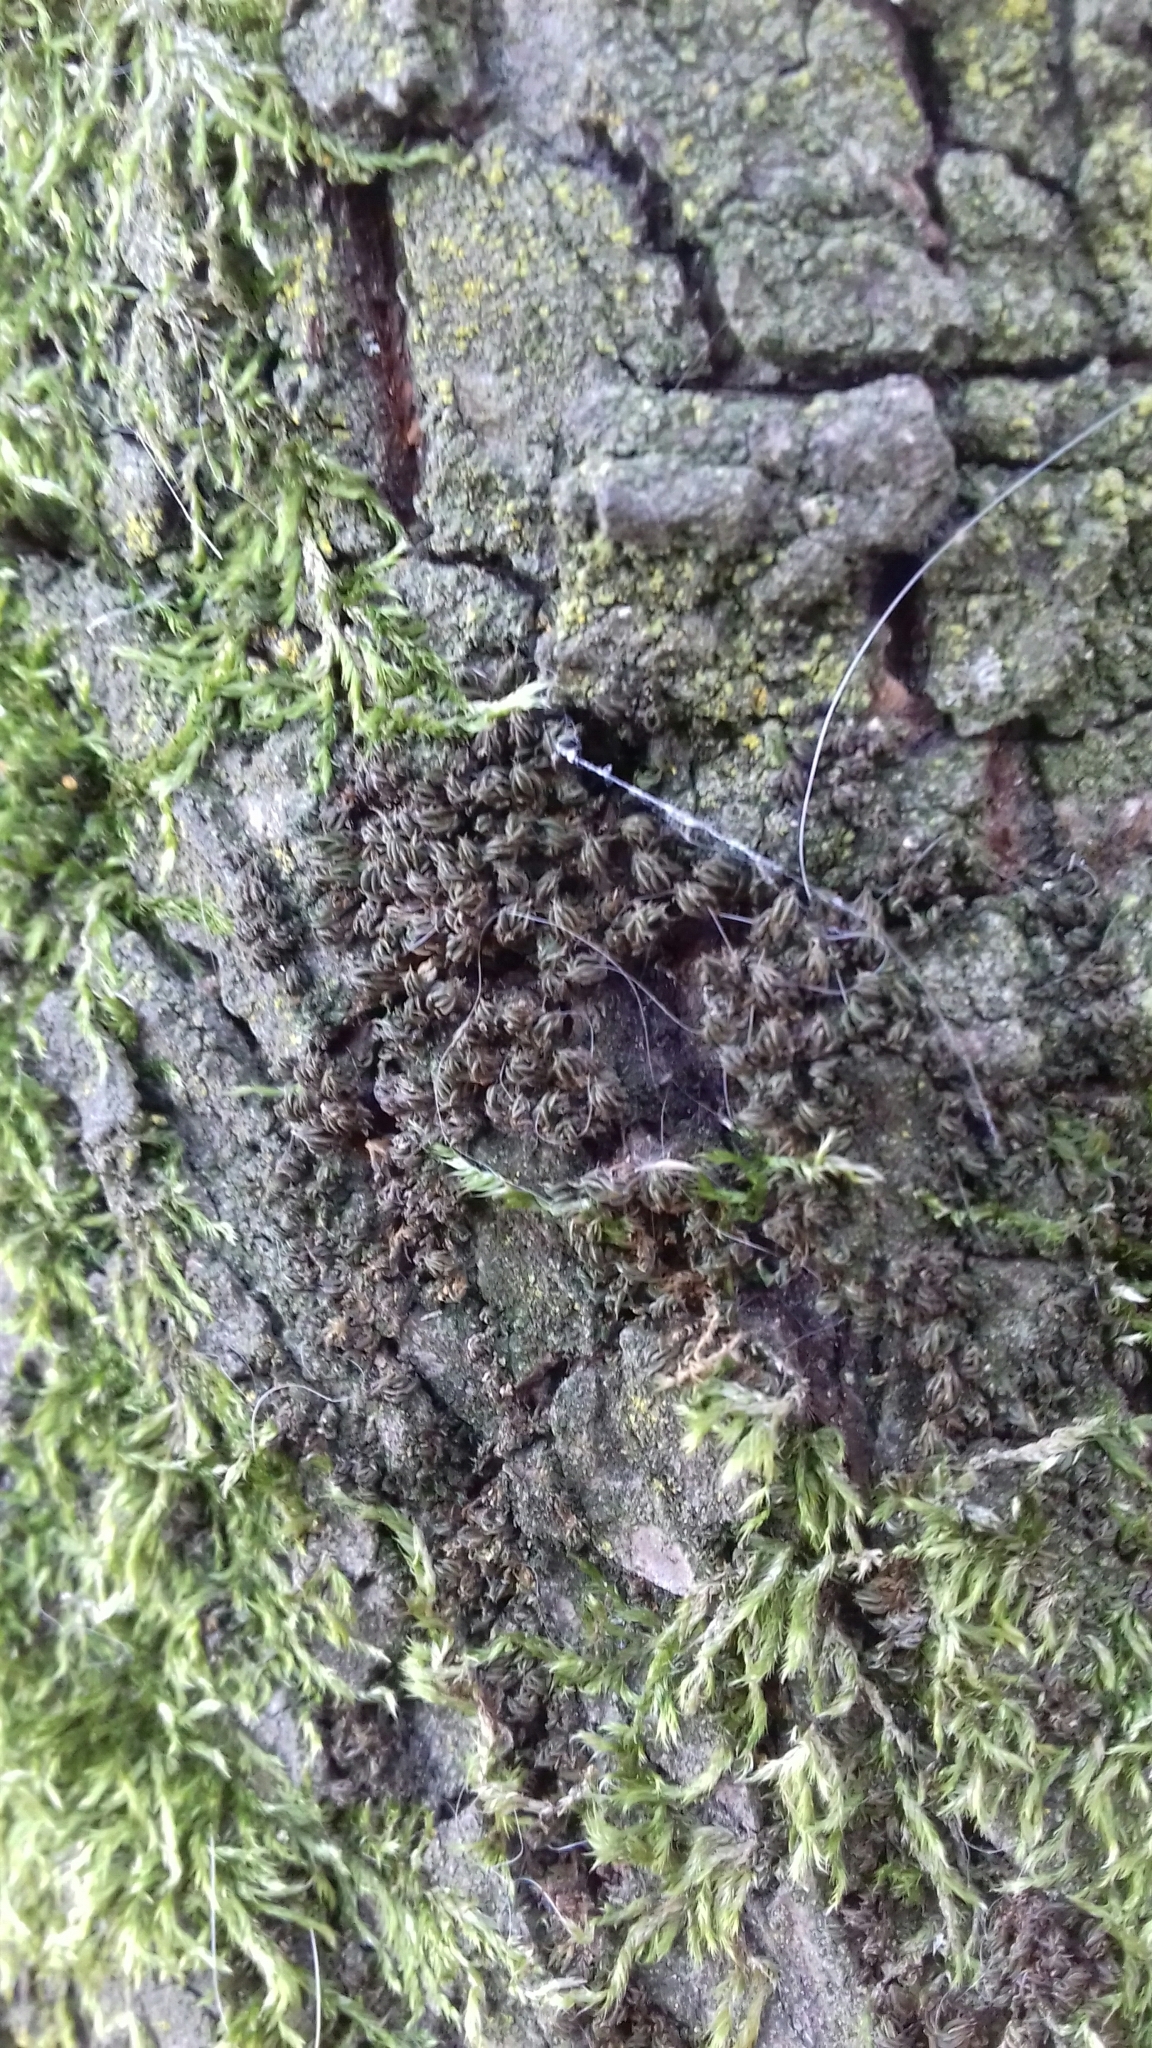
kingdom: Plantae
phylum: Bryophyta
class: Bryopsida
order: Pottiales
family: Pottiaceae
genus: Syntrichia
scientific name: Syntrichia papillosa
